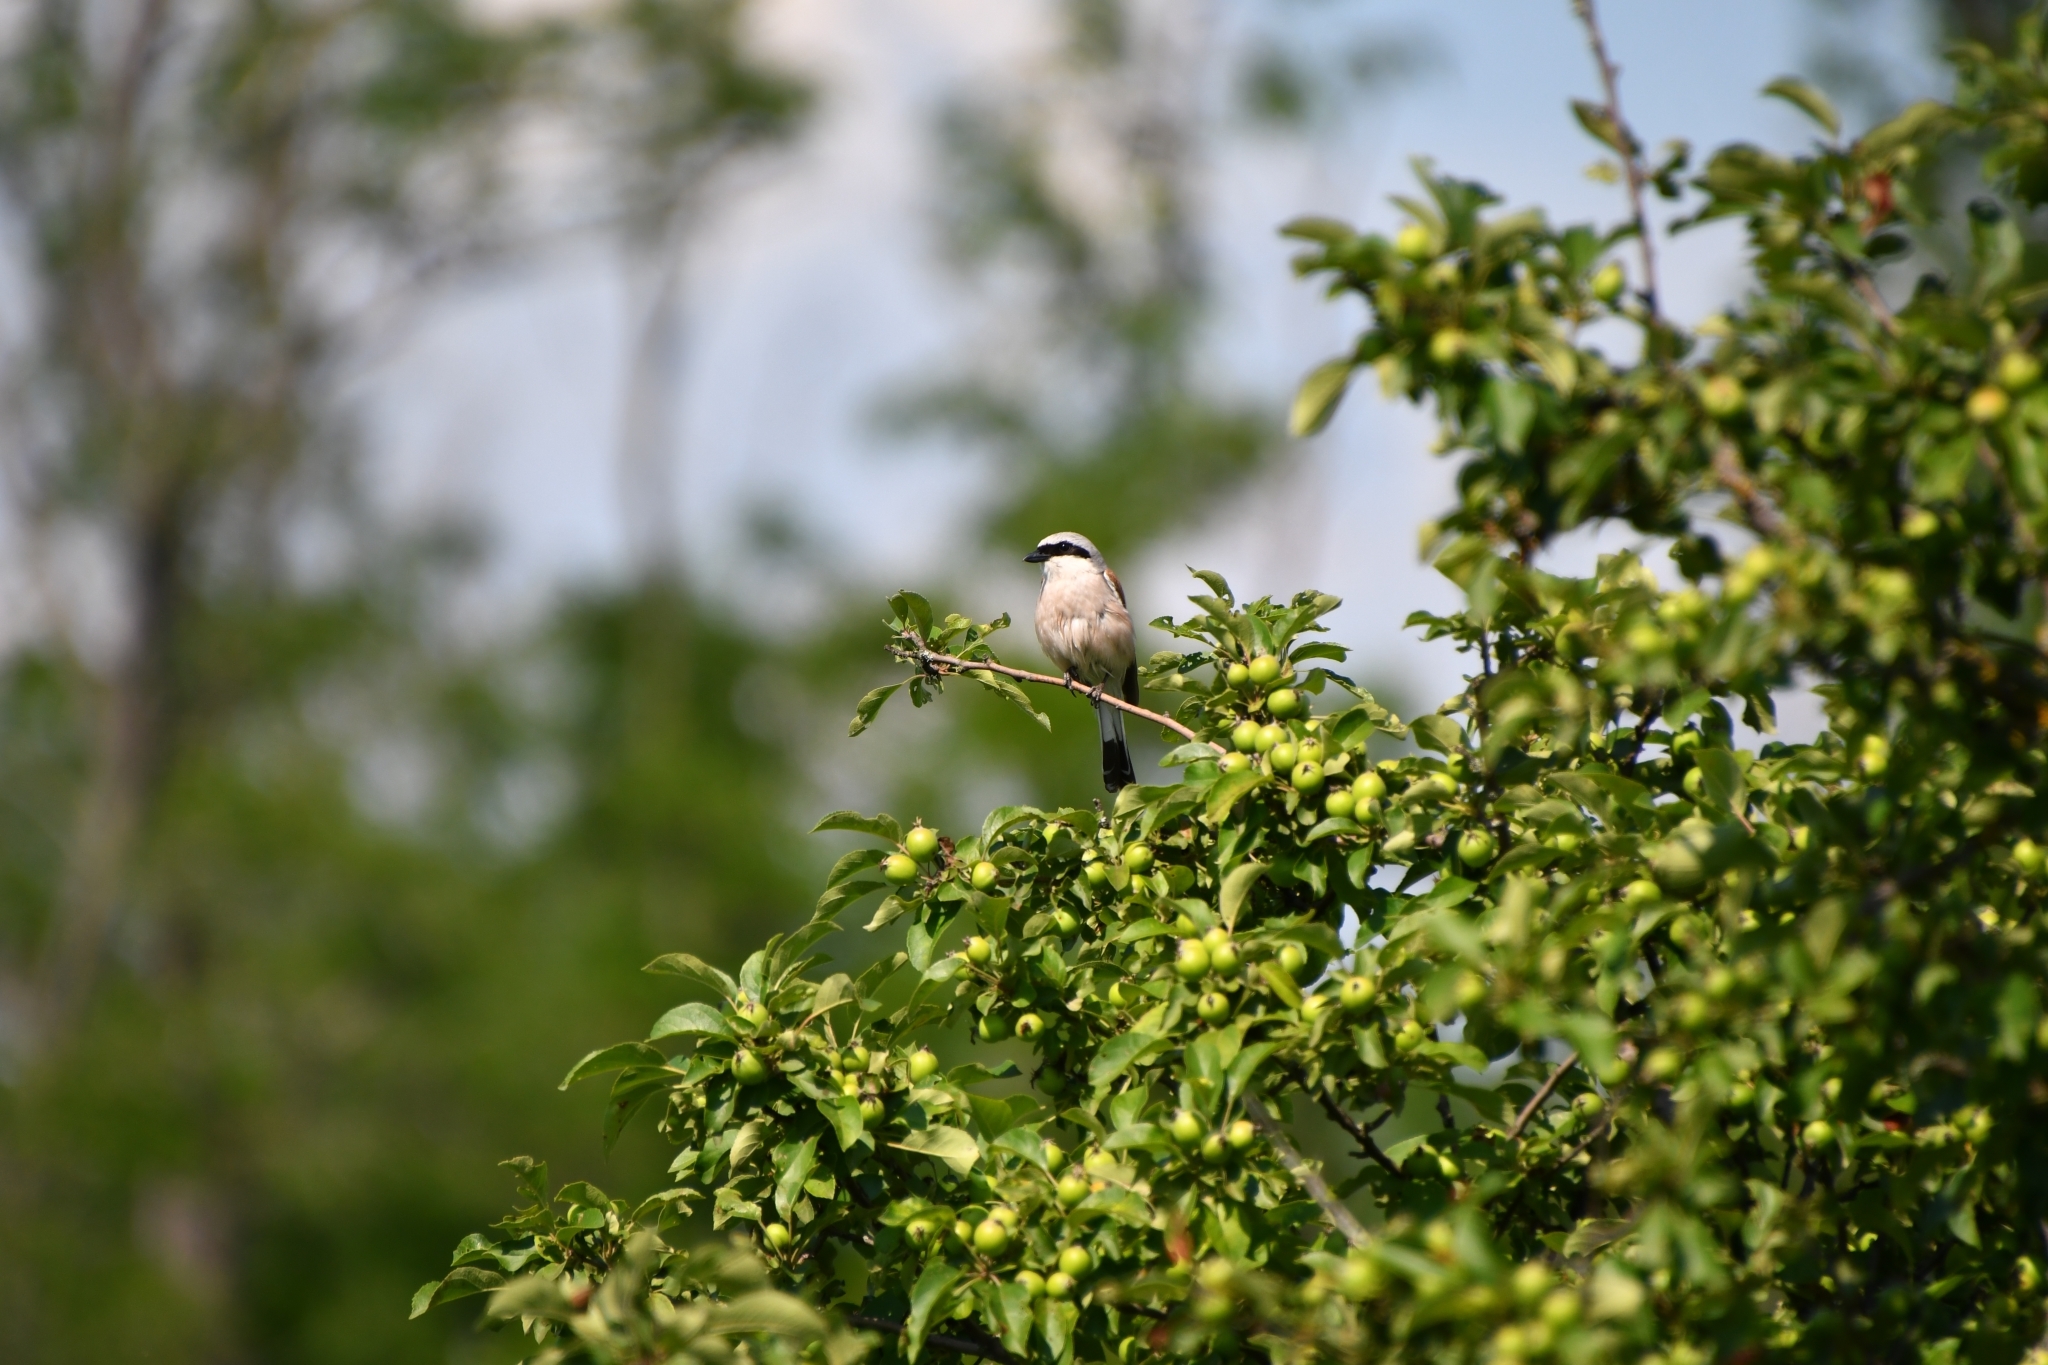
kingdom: Animalia
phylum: Chordata
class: Aves
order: Passeriformes
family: Laniidae
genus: Lanius
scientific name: Lanius collurio
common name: Red-backed shrike
